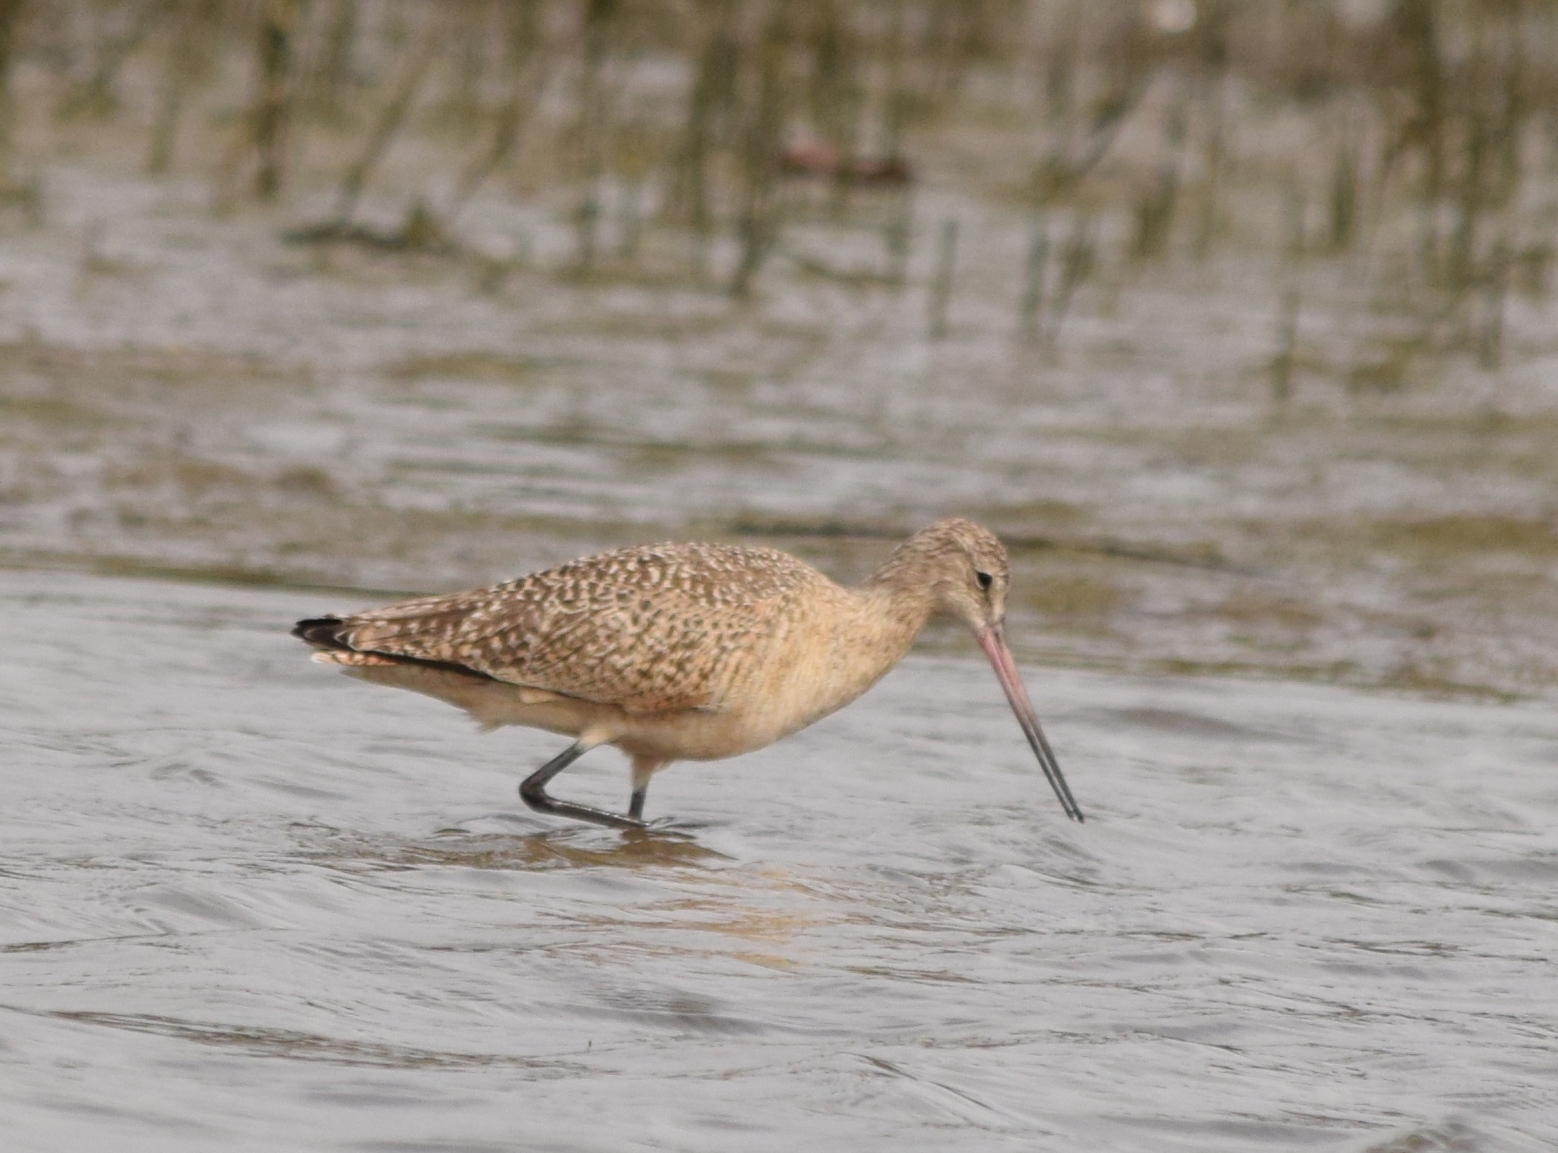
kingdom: Animalia
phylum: Chordata
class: Aves
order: Charadriiformes
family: Scolopacidae
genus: Limosa
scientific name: Limosa fedoa
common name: Marbled godwit
